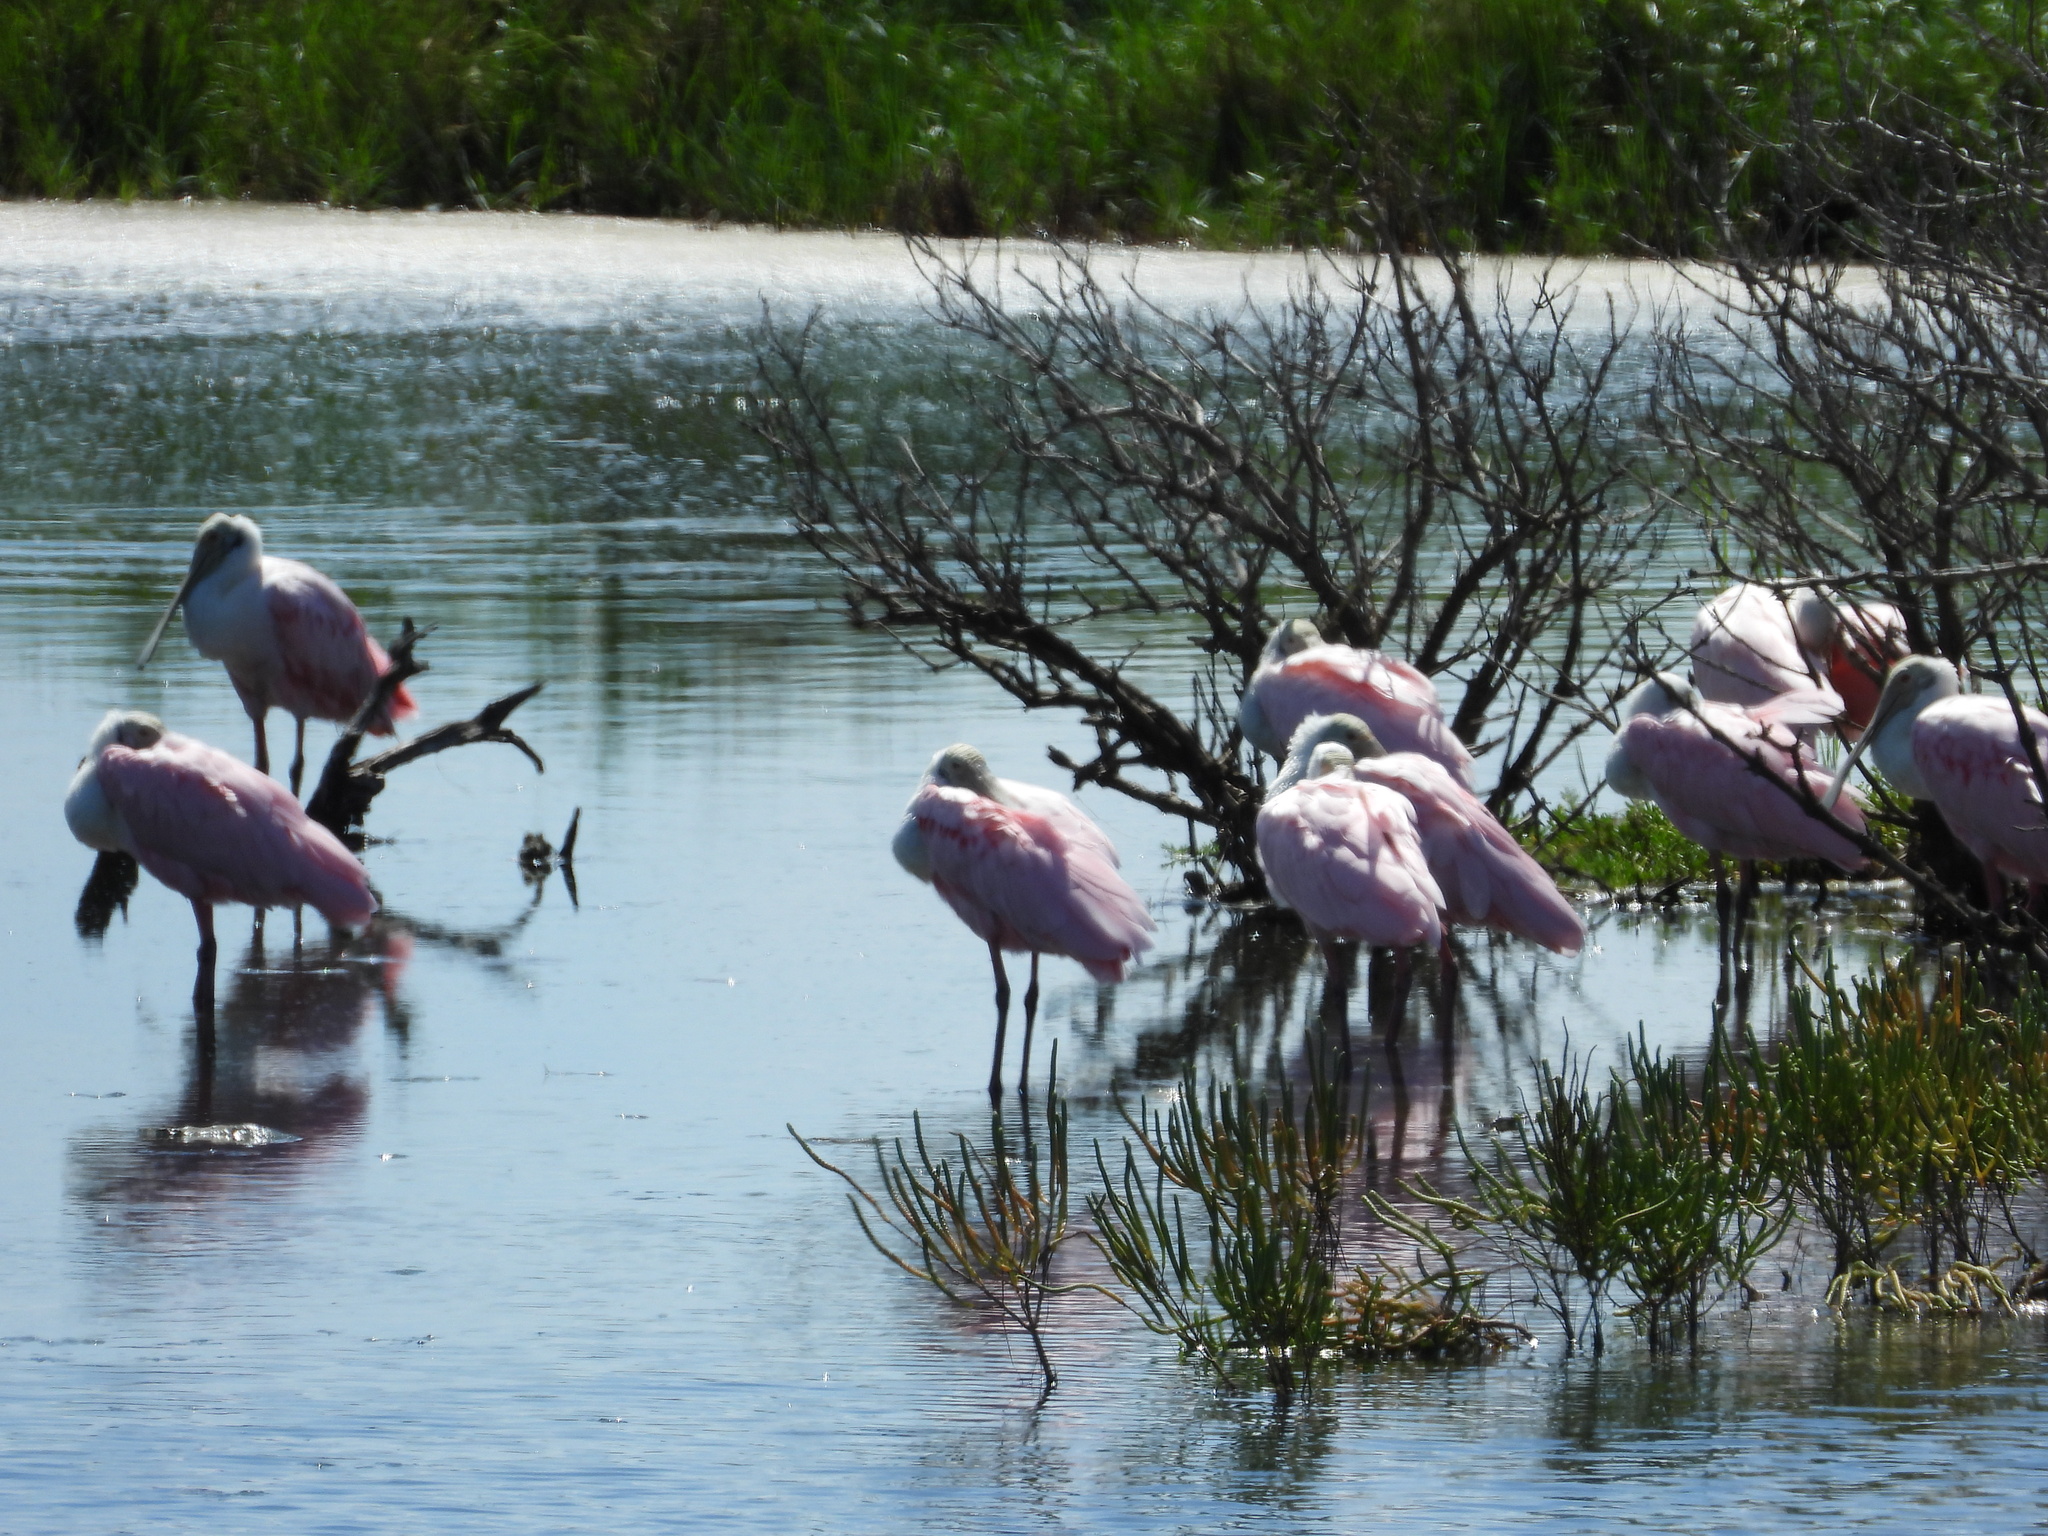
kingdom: Animalia
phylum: Chordata
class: Aves
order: Pelecaniformes
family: Threskiornithidae
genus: Platalea
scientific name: Platalea ajaja
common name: Roseate spoonbill
